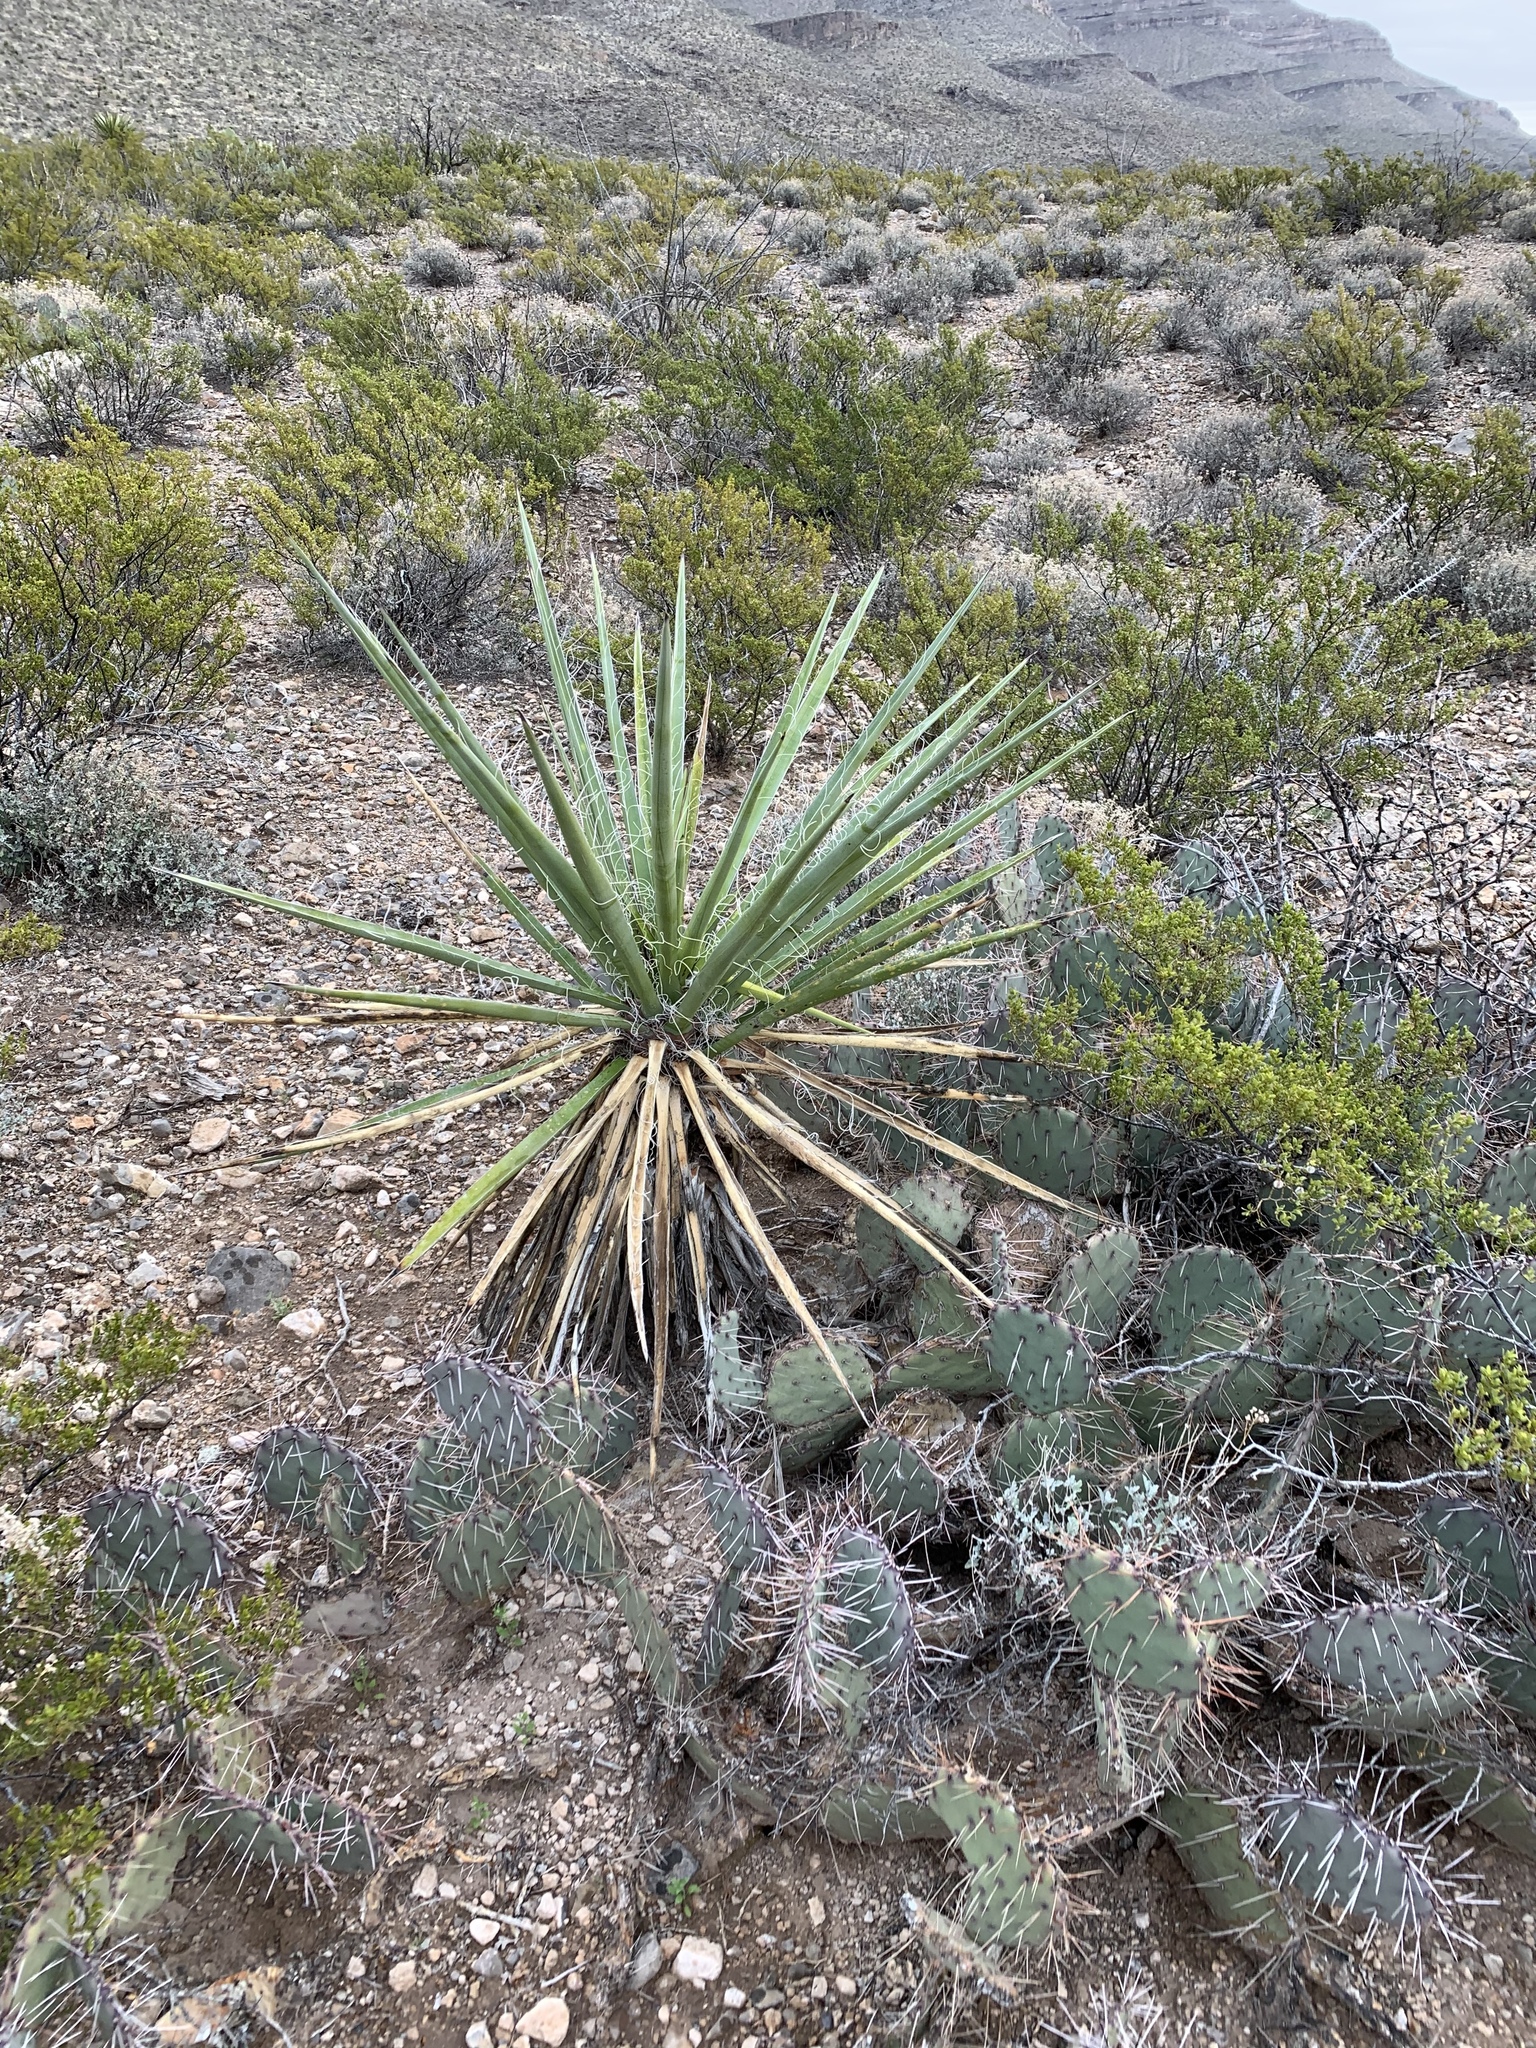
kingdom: Plantae
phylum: Tracheophyta
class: Liliopsida
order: Asparagales
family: Asparagaceae
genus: Yucca
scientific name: Yucca treculiana
